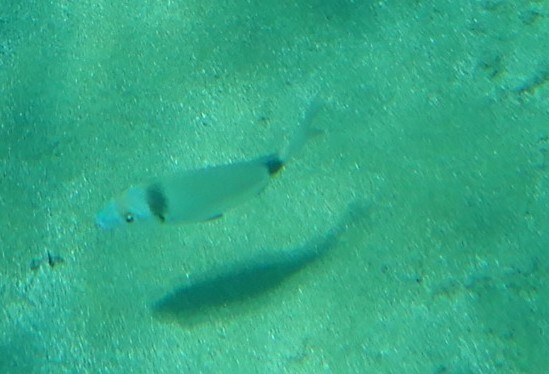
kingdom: Animalia
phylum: Chordata
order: Perciformes
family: Sparidae
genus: Diplodus
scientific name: Diplodus vulgaris
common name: Common two-banded seabream
